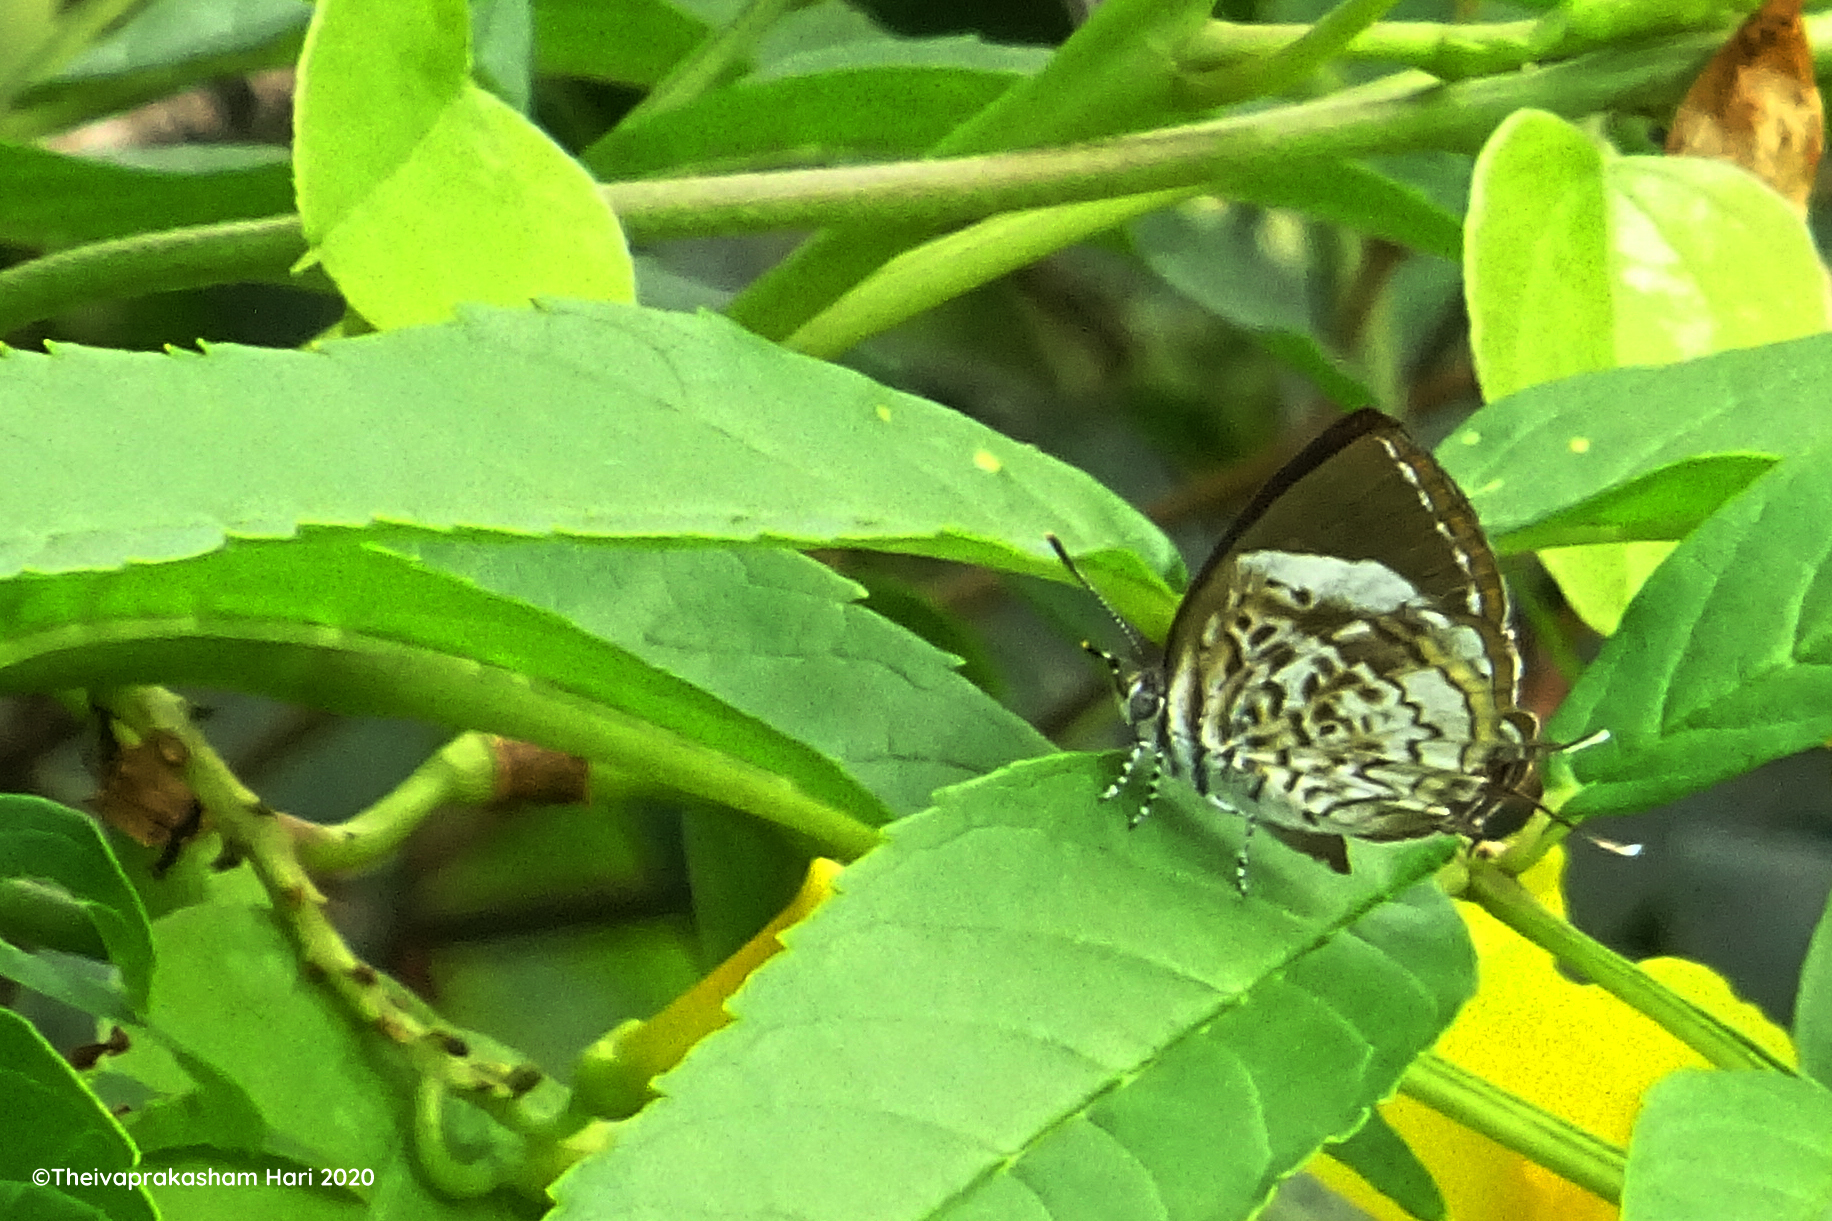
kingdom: Animalia
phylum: Arthropoda
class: Insecta
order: Lepidoptera
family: Lycaenidae
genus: Rathinda
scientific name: Rathinda amor
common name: Monkey puzzle
